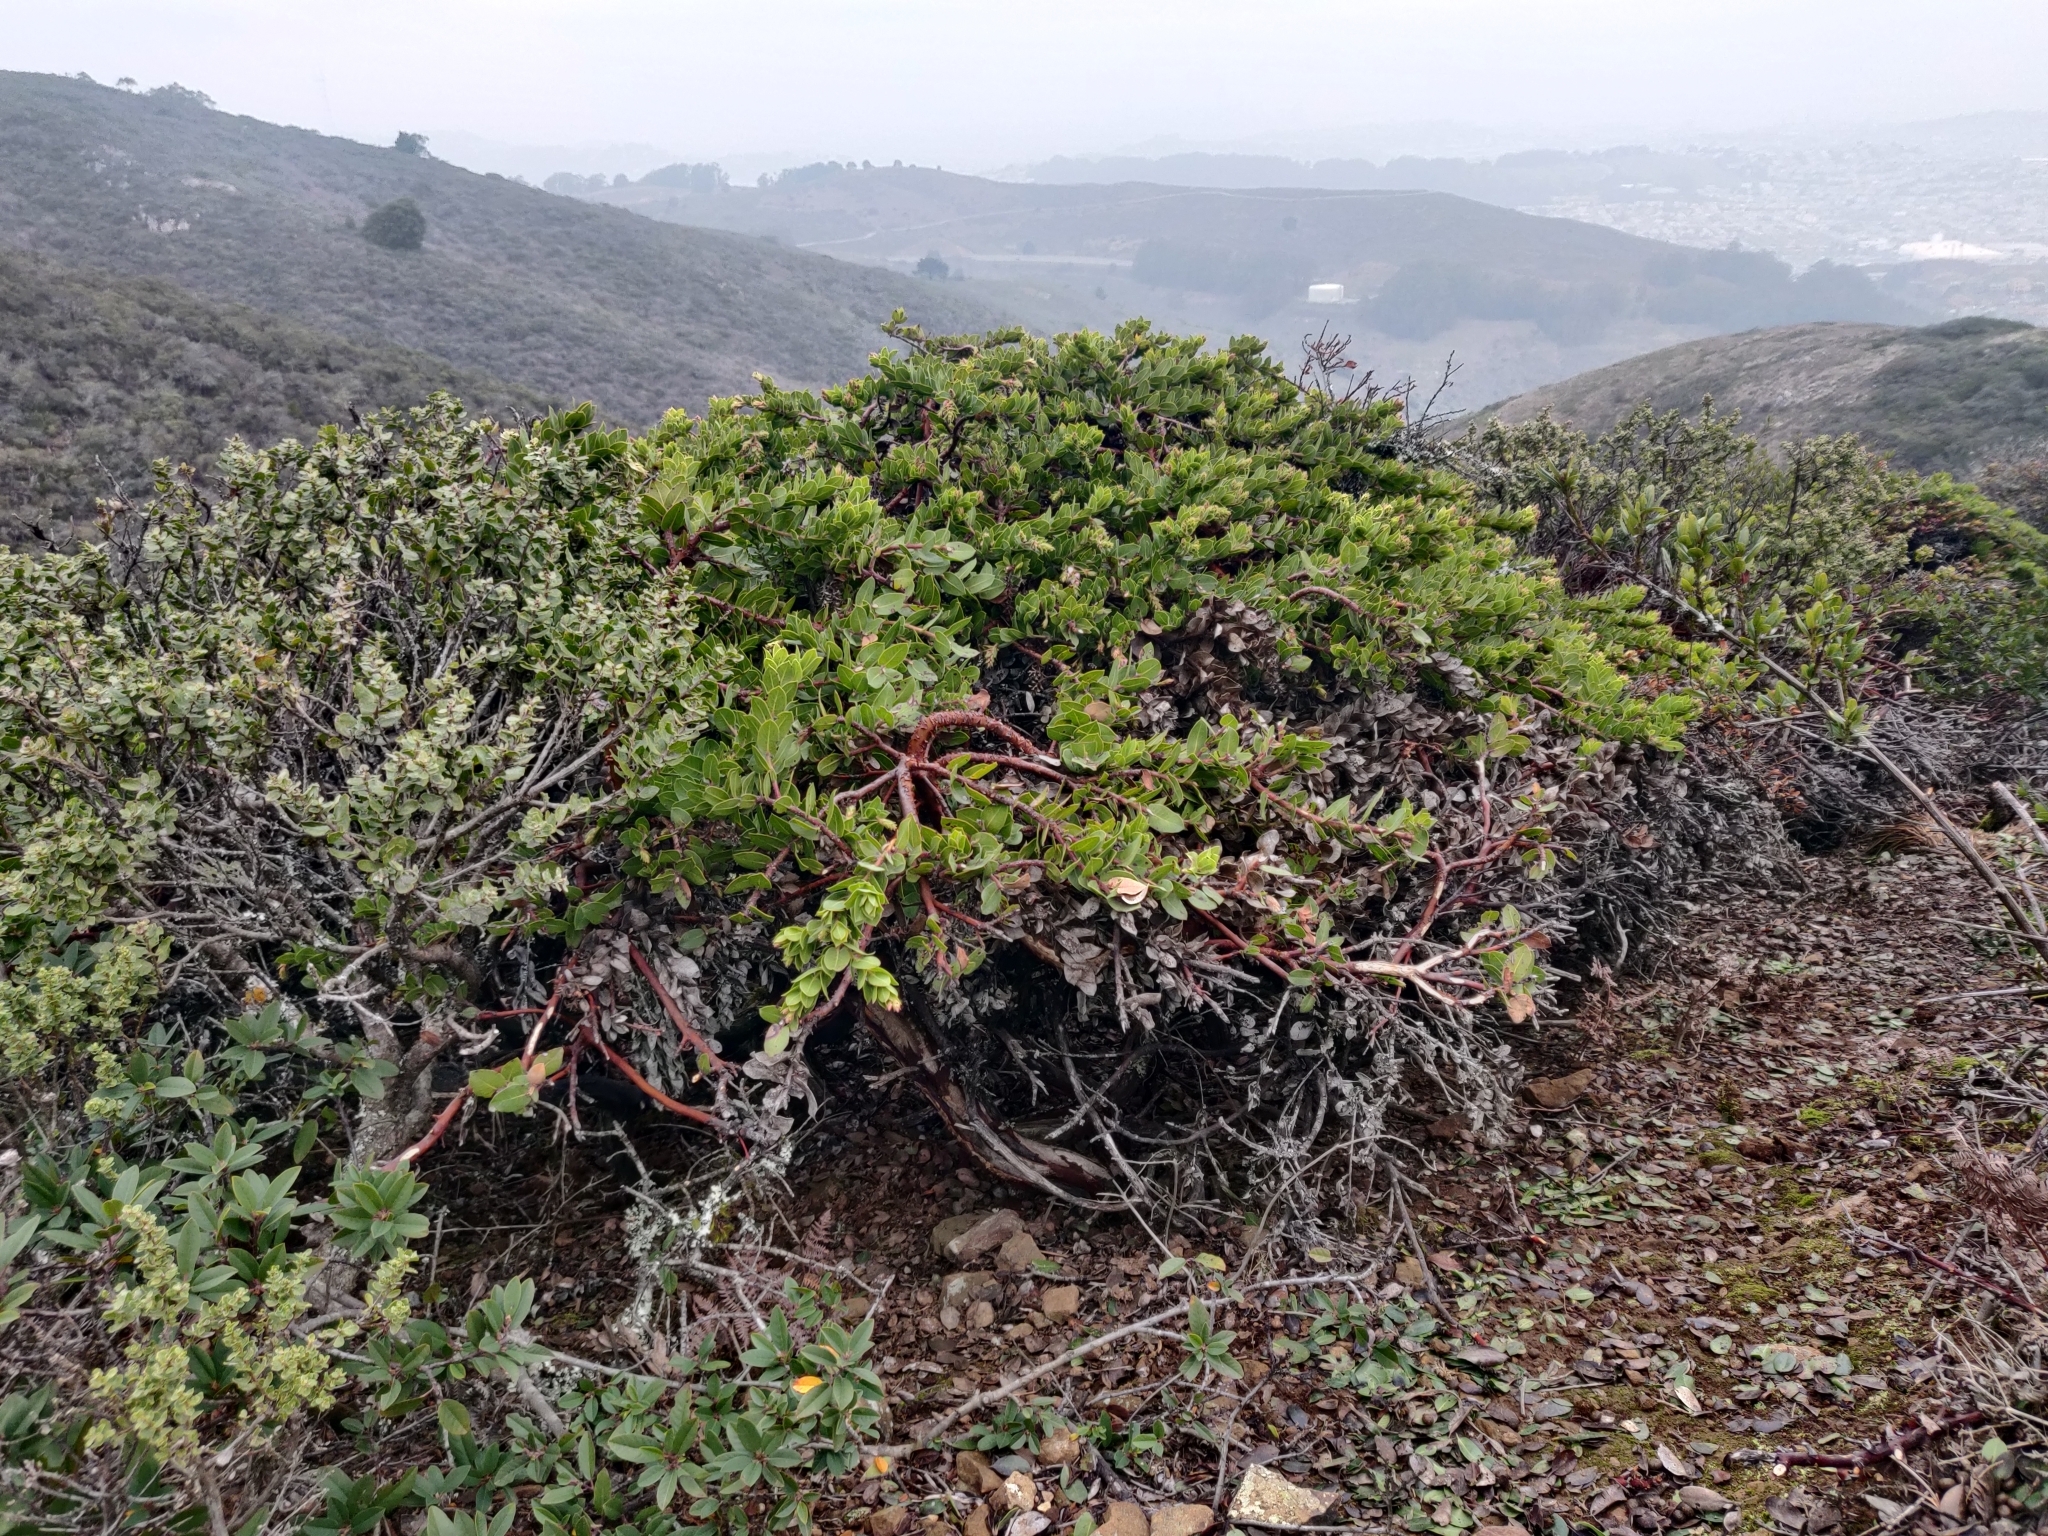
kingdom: Plantae
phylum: Tracheophyta
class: Magnoliopsida
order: Ericales
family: Ericaceae
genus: Arctostaphylos
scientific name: Arctostaphylos imbricata
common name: San bruno mountain manzanita
